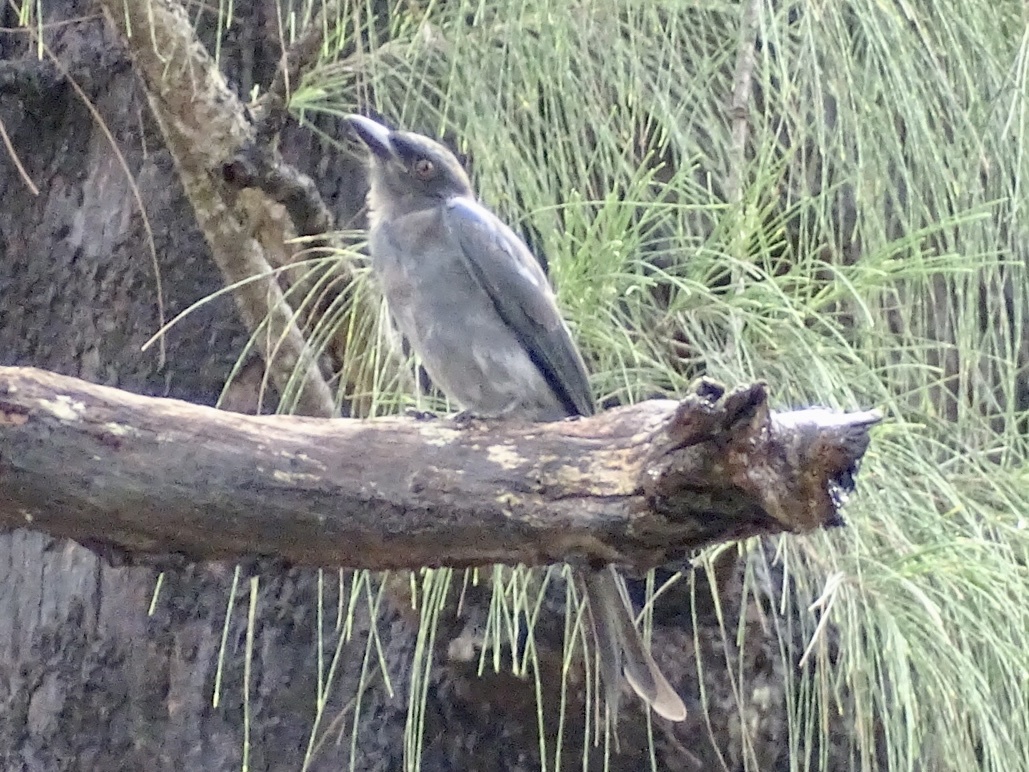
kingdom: Animalia
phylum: Chordata
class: Aves
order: Passeriformes
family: Dicruridae
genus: Dicrurus
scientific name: Dicrurus leucophaeus
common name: Ashy drongo
